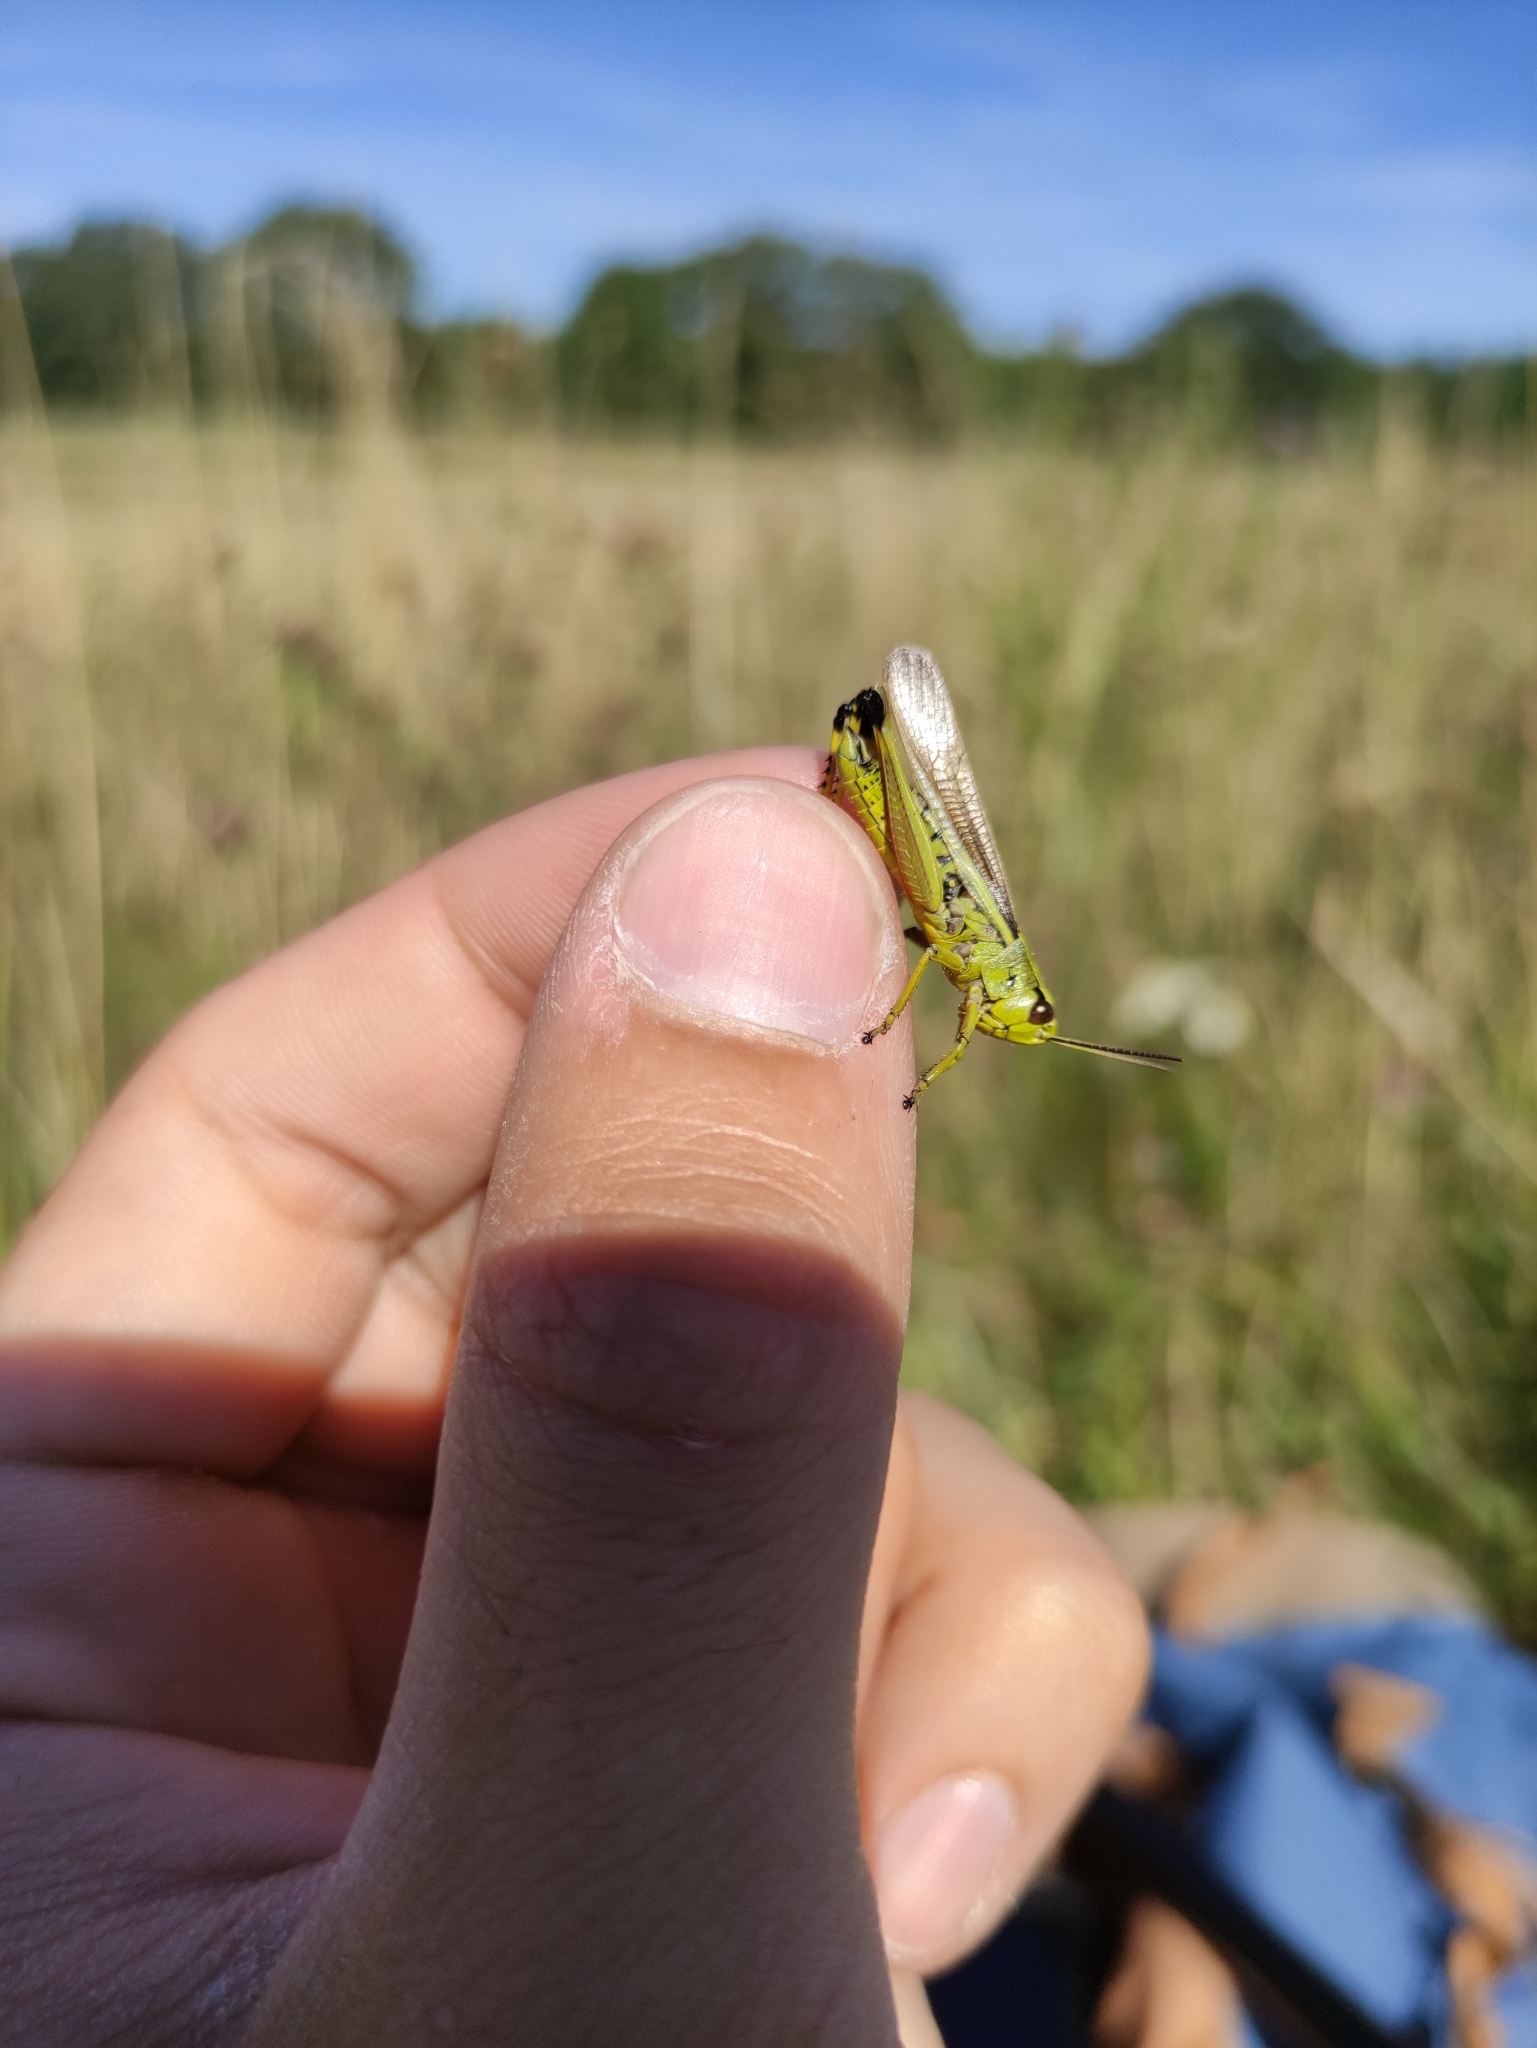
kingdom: Animalia
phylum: Arthropoda
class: Insecta
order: Orthoptera
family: Acrididae
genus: Stethophyma
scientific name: Stethophyma grossum
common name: Large marsh grasshopper
